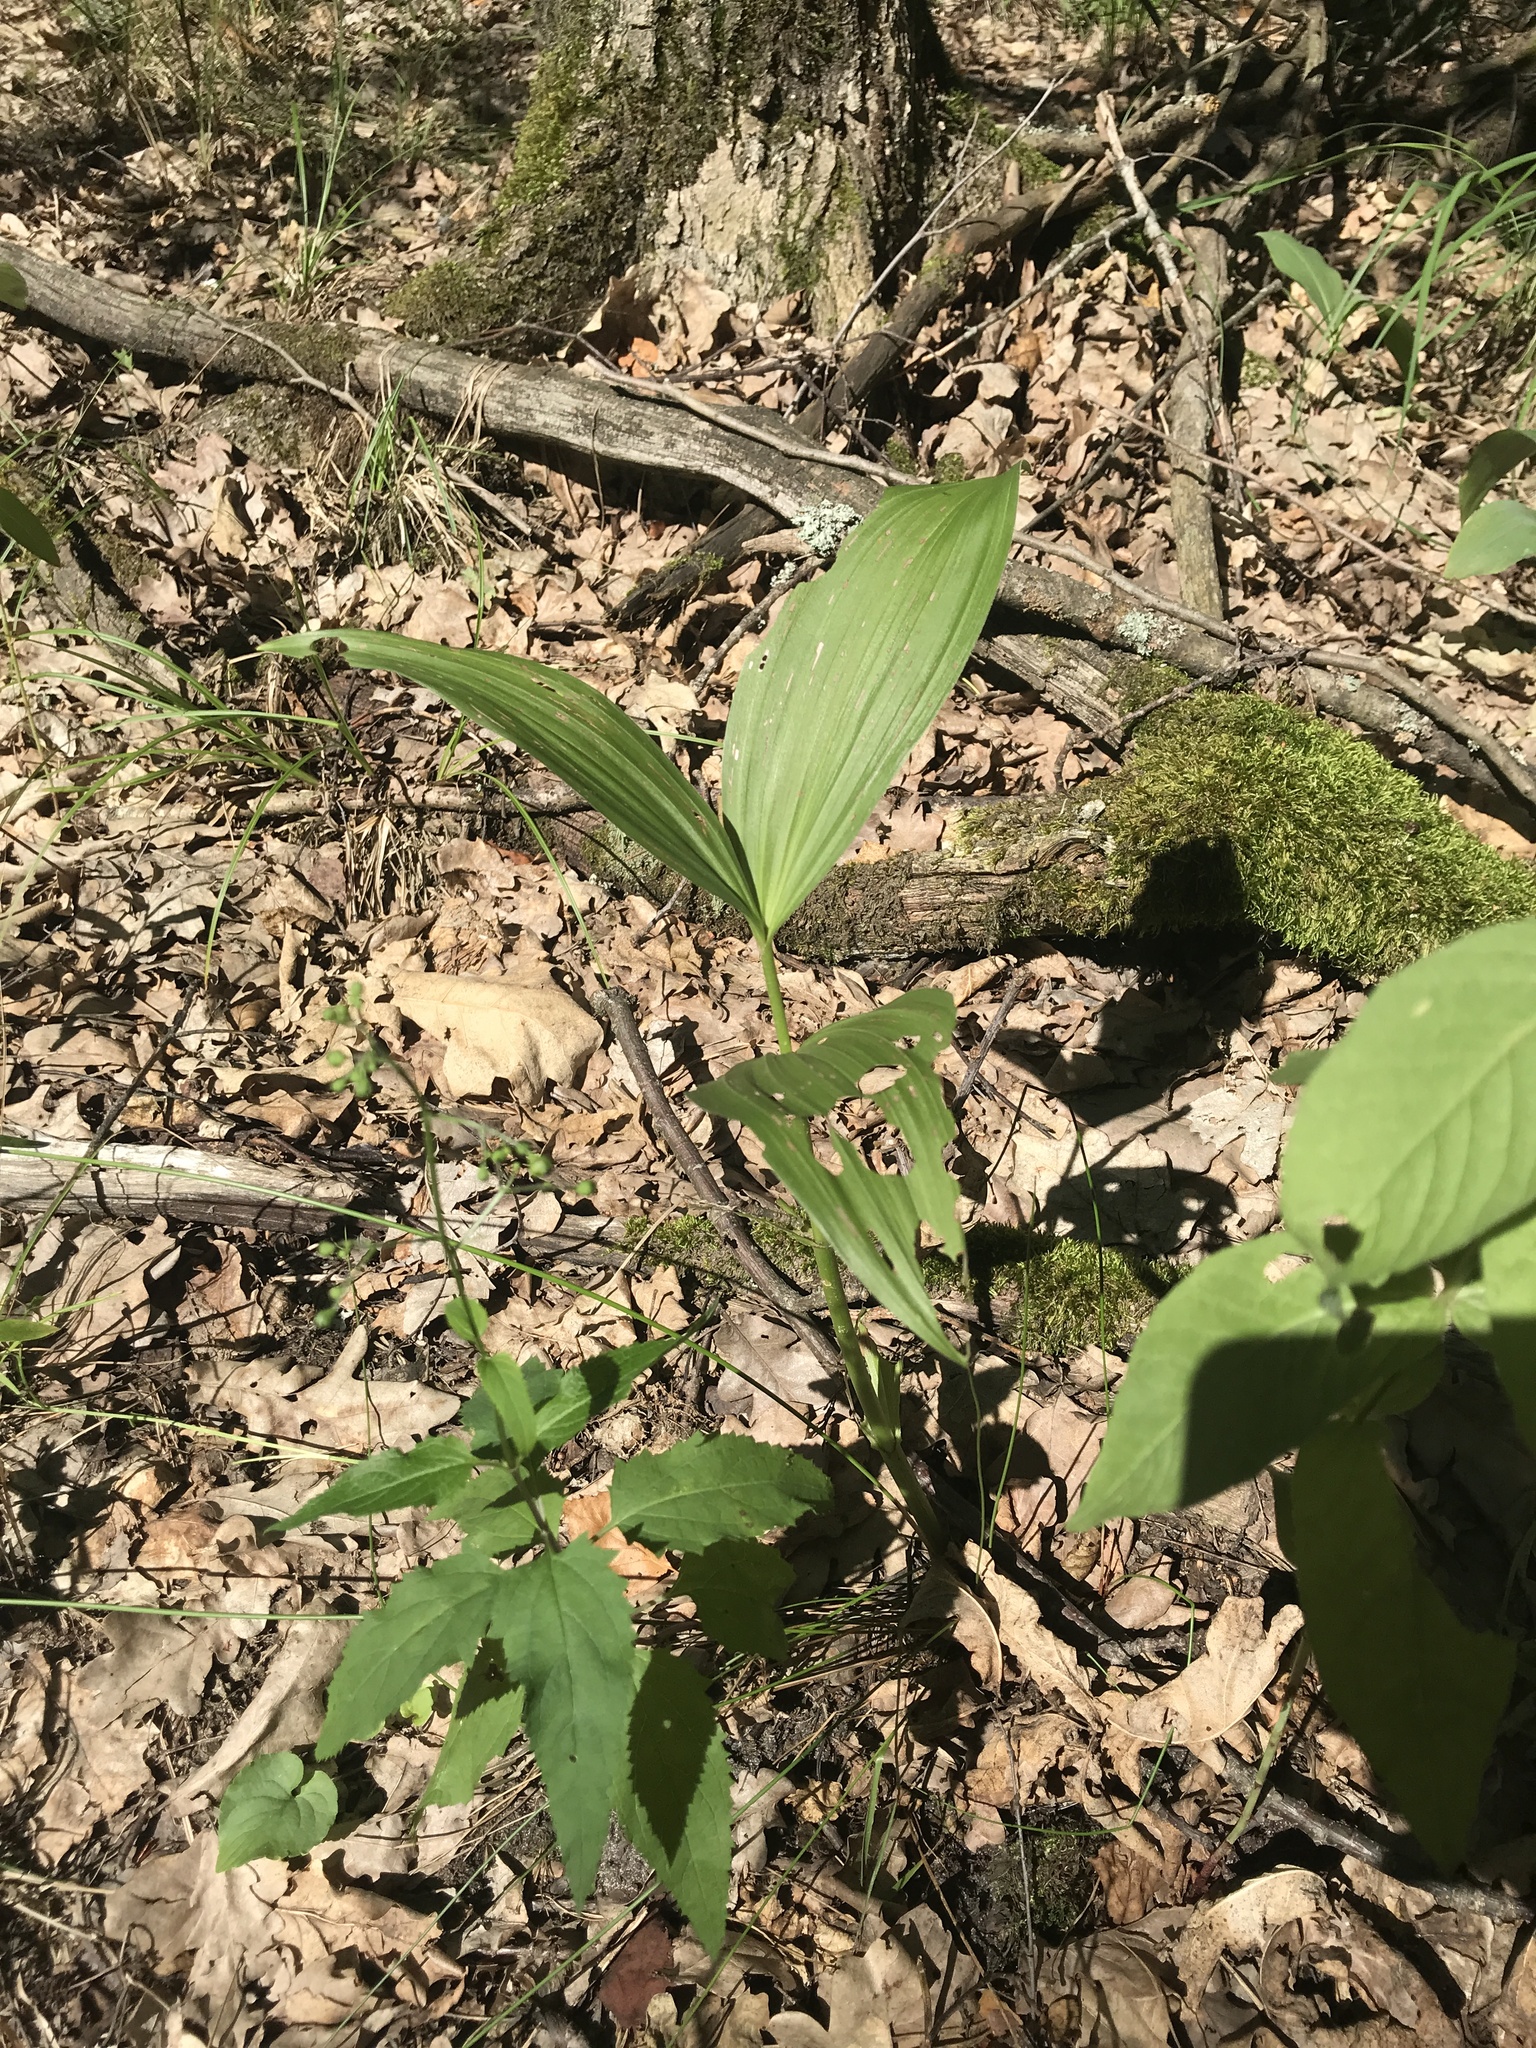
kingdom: Plantae
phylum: Tracheophyta
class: Liliopsida
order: Liliales
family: Melanthiaceae
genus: Veratrum
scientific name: Veratrum lobelianum
